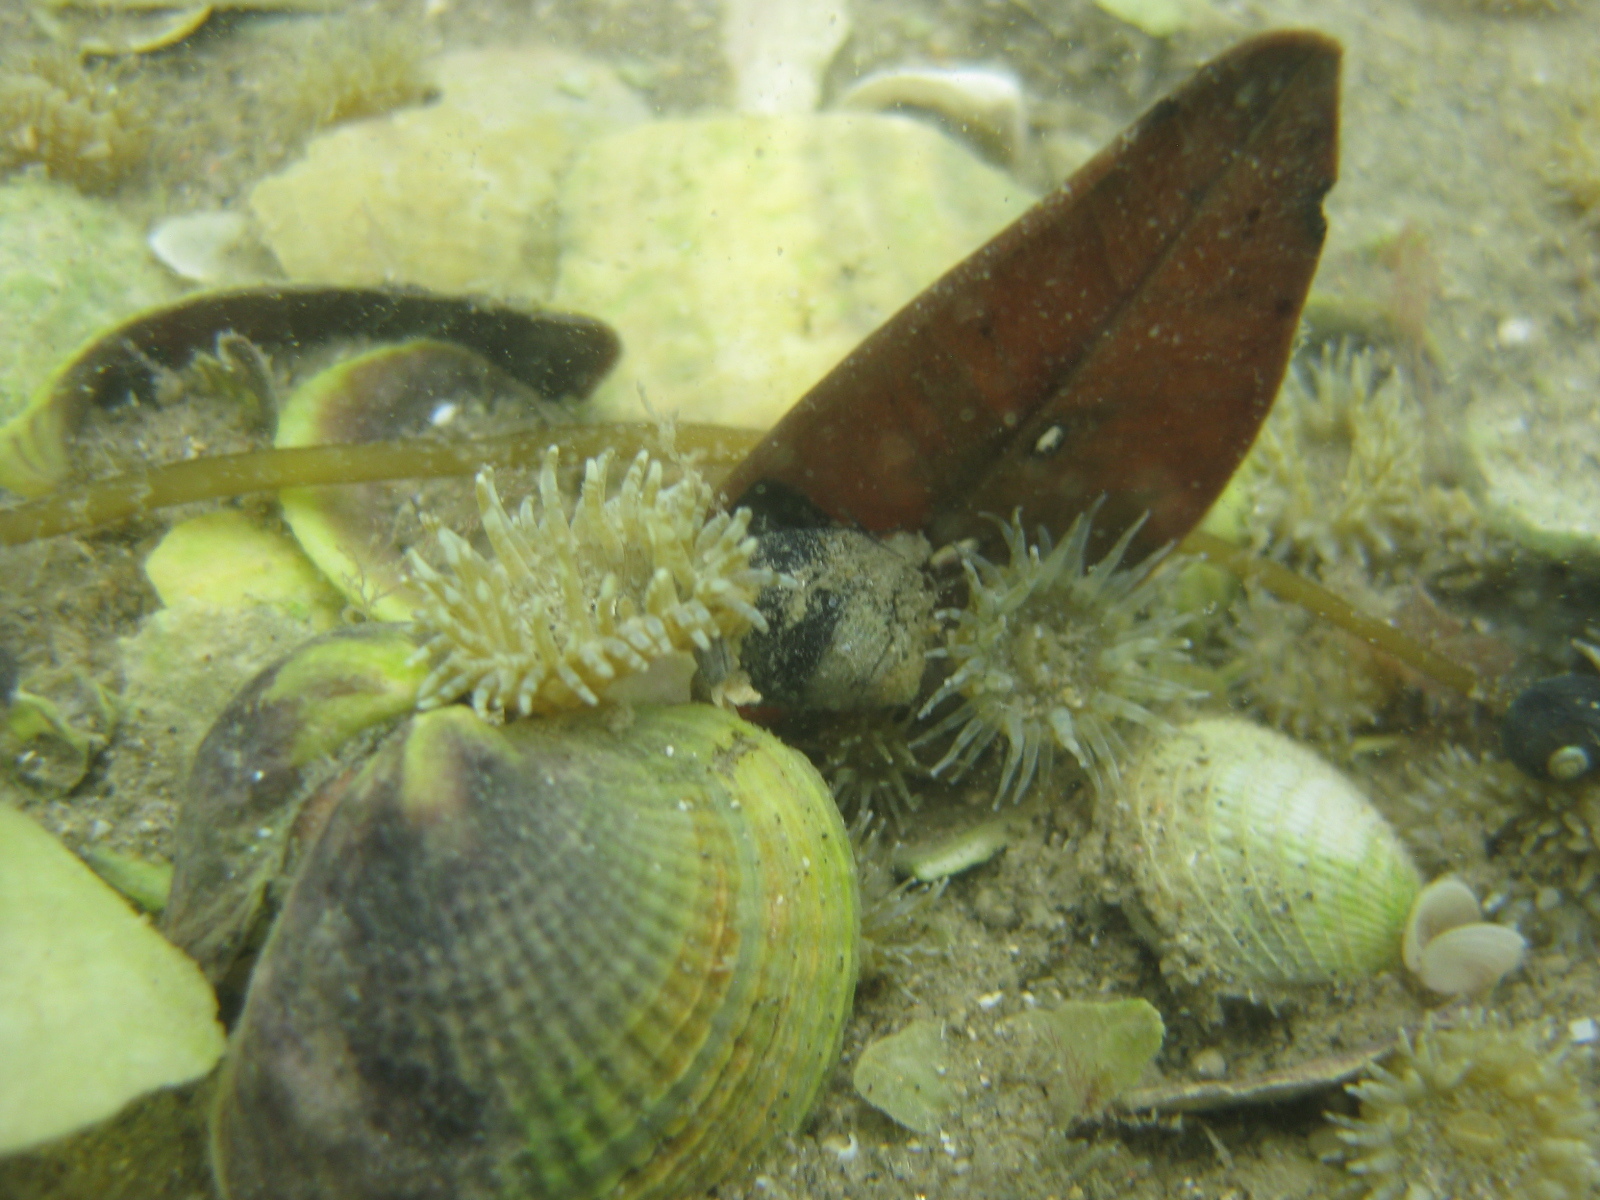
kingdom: Animalia
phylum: Cnidaria
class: Anthozoa
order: Actiniaria
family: Actiniidae
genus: Anthopleura
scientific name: Anthopleura hermaphroditica
